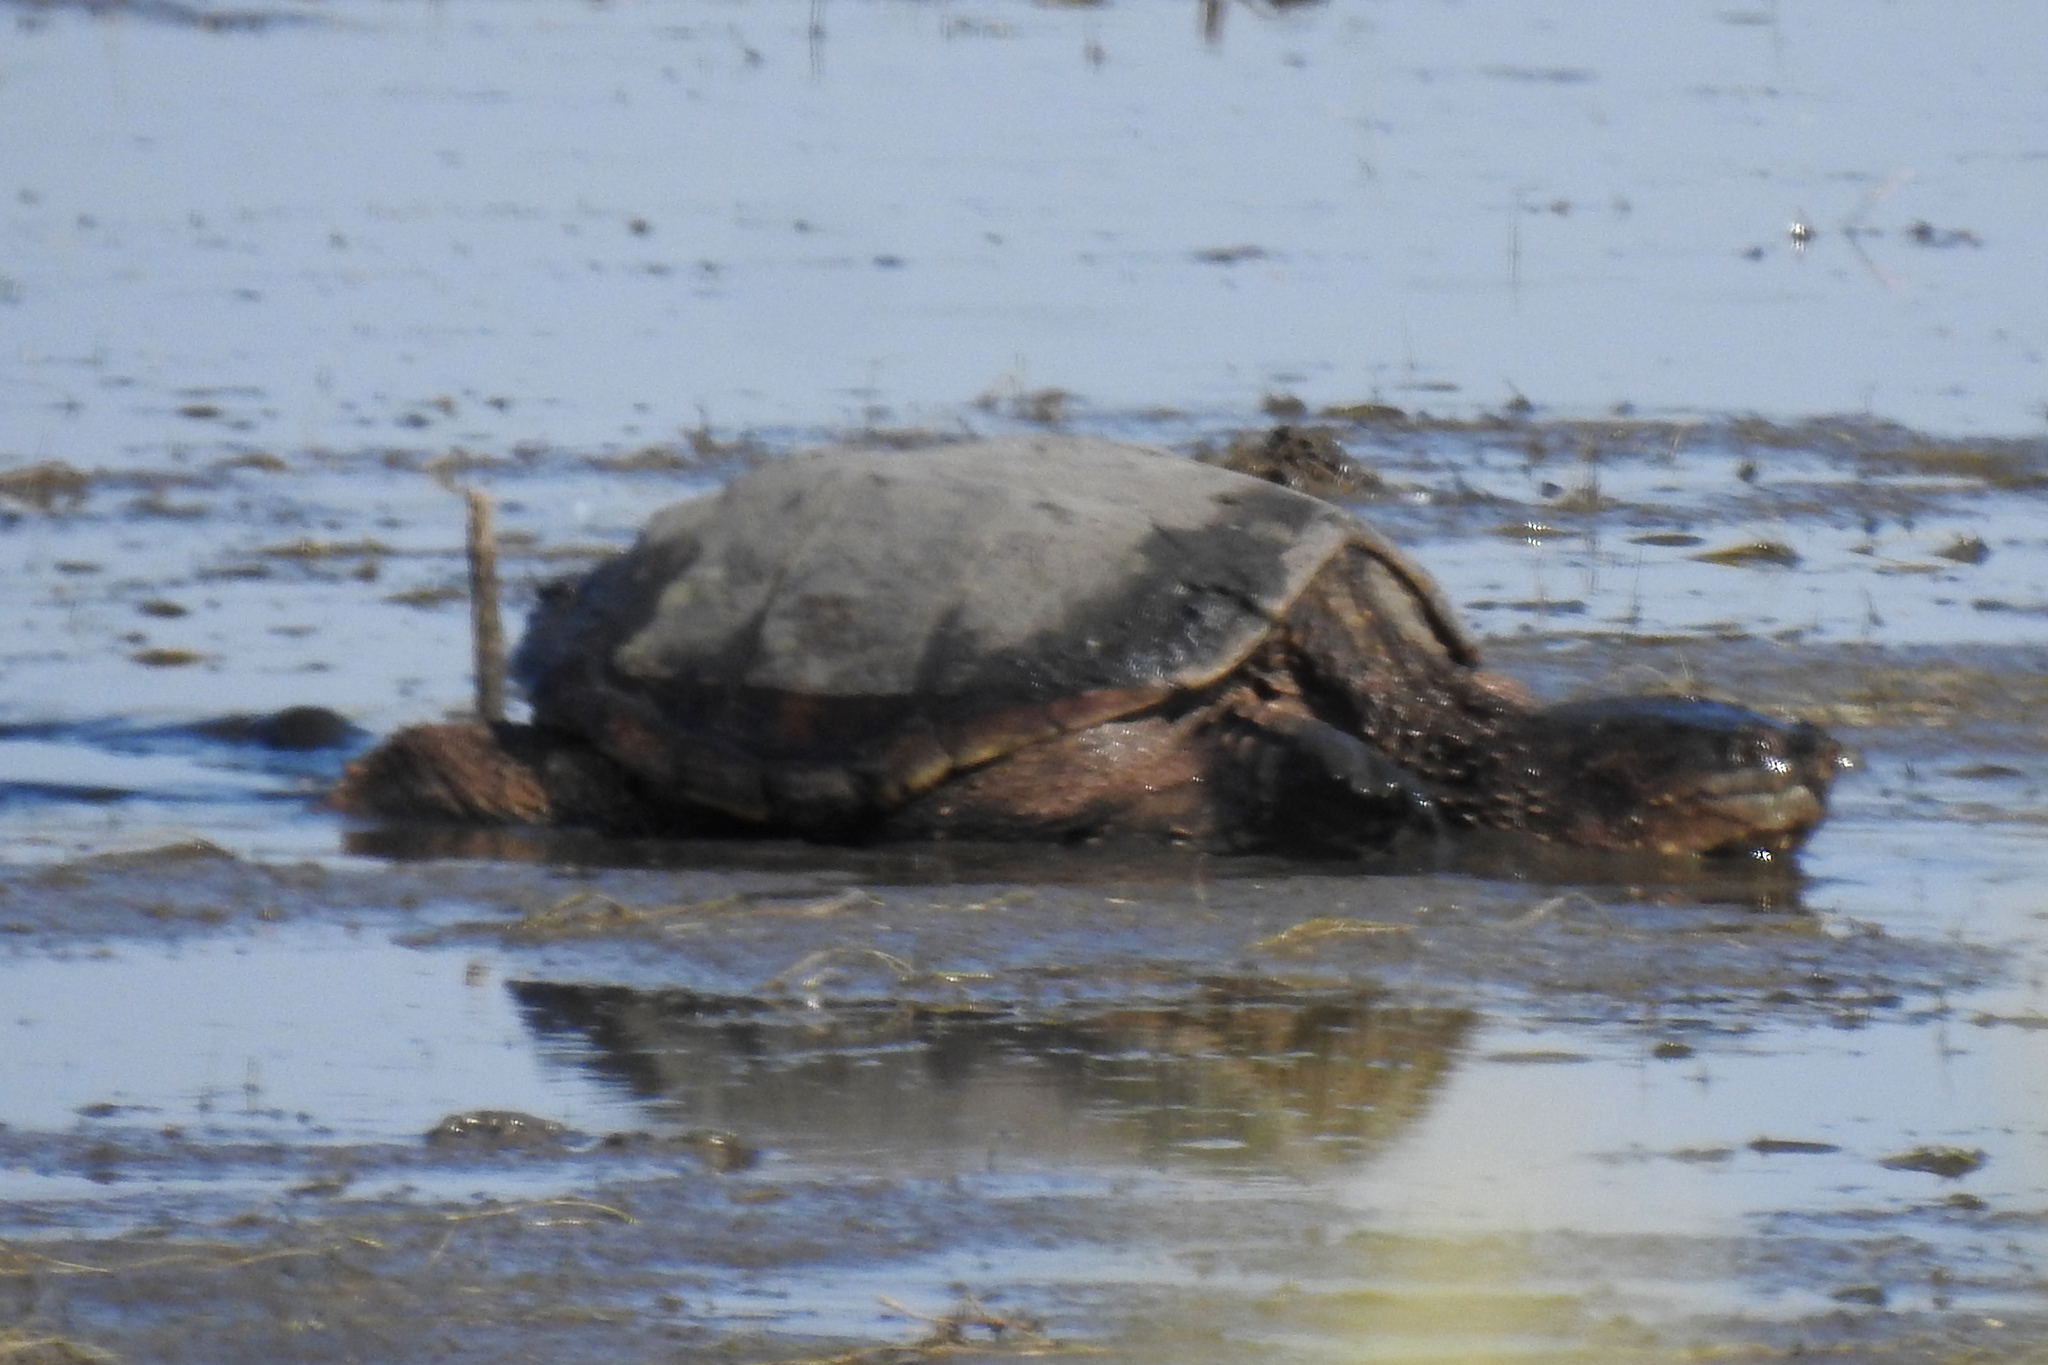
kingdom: Animalia
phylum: Chordata
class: Testudines
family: Chelydridae
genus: Chelydra
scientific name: Chelydra serpentina
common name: Common snapping turtle
